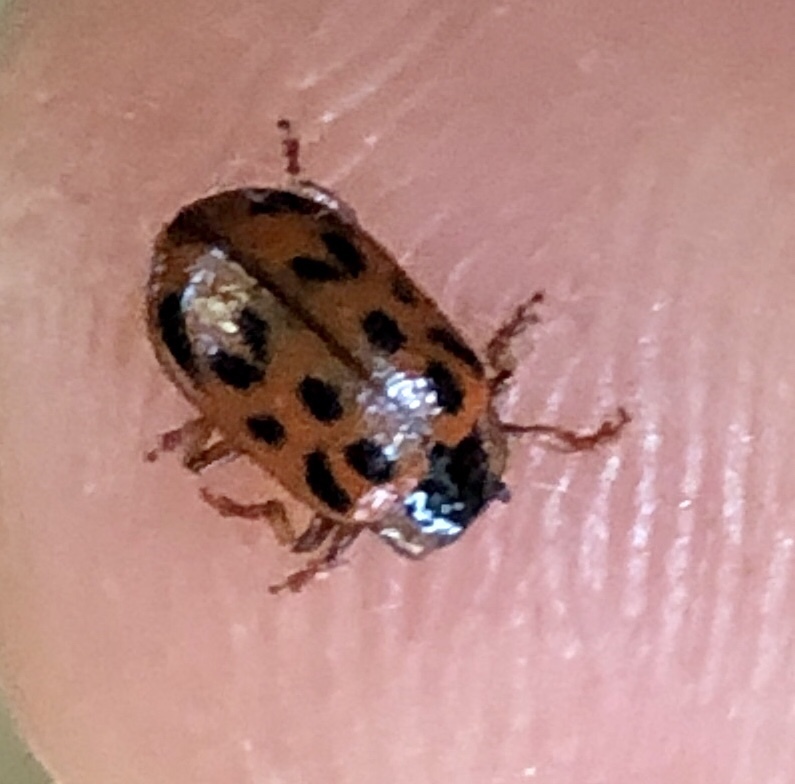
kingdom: Animalia
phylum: Arthropoda
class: Insecta
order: Coleoptera
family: Chrysomelidae
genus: Chrysomela
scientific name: Chrysomela mainensis
